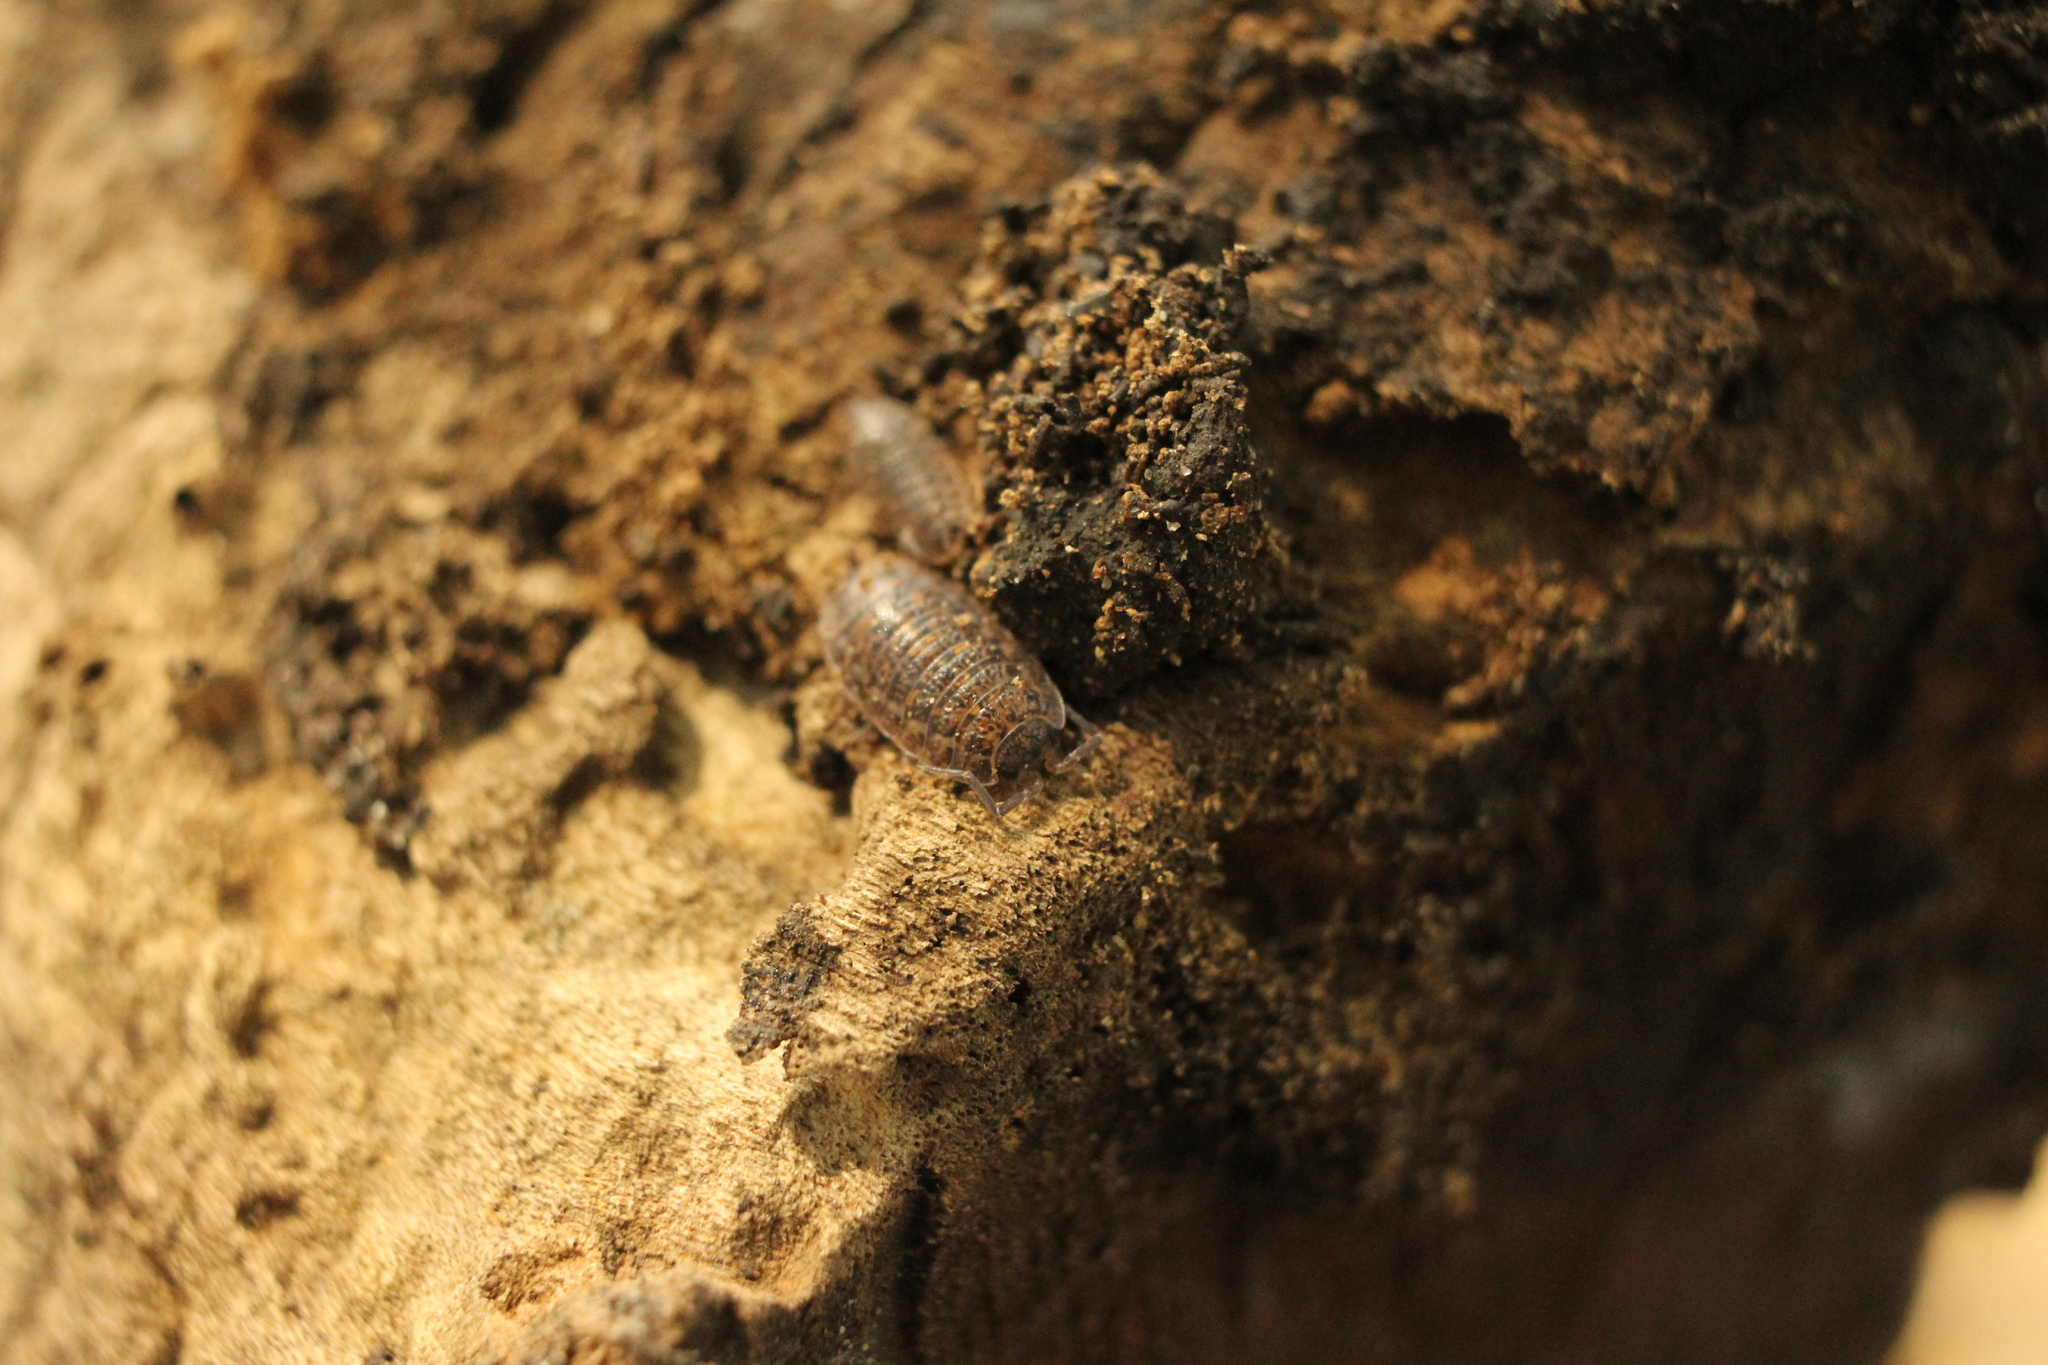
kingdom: Animalia
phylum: Arthropoda
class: Malacostraca
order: Isopoda
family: Trachelipodidae
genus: Trachelipus
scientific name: Trachelipus rathkii
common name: Isopod
